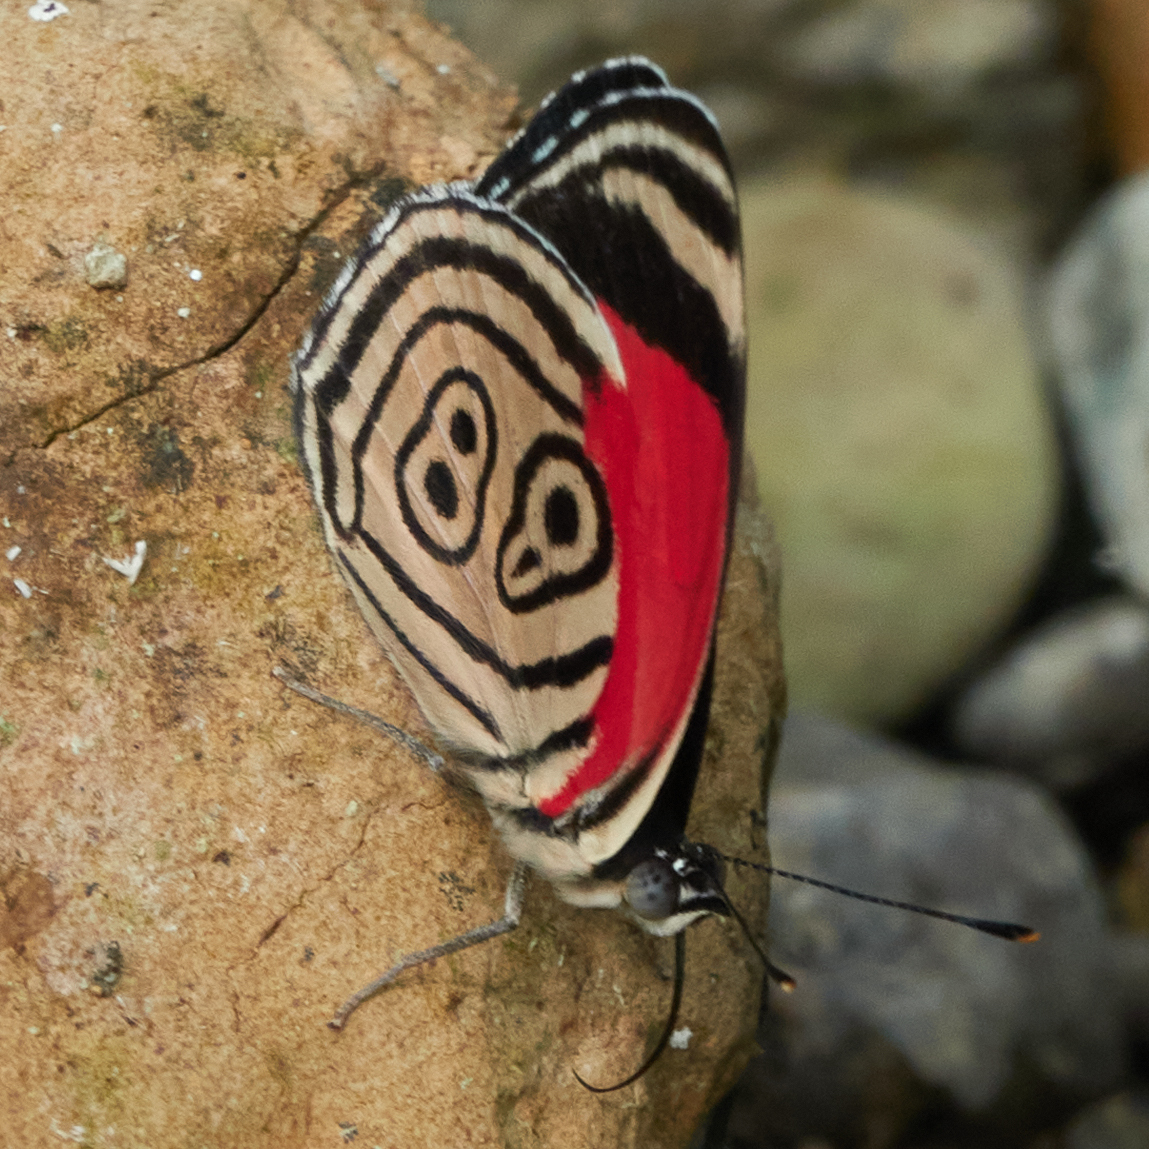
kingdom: Animalia
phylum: Arthropoda
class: Insecta
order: Lepidoptera
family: Nymphalidae
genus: Diaethria
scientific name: Diaethria clymena
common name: Widespread eighty-eight
